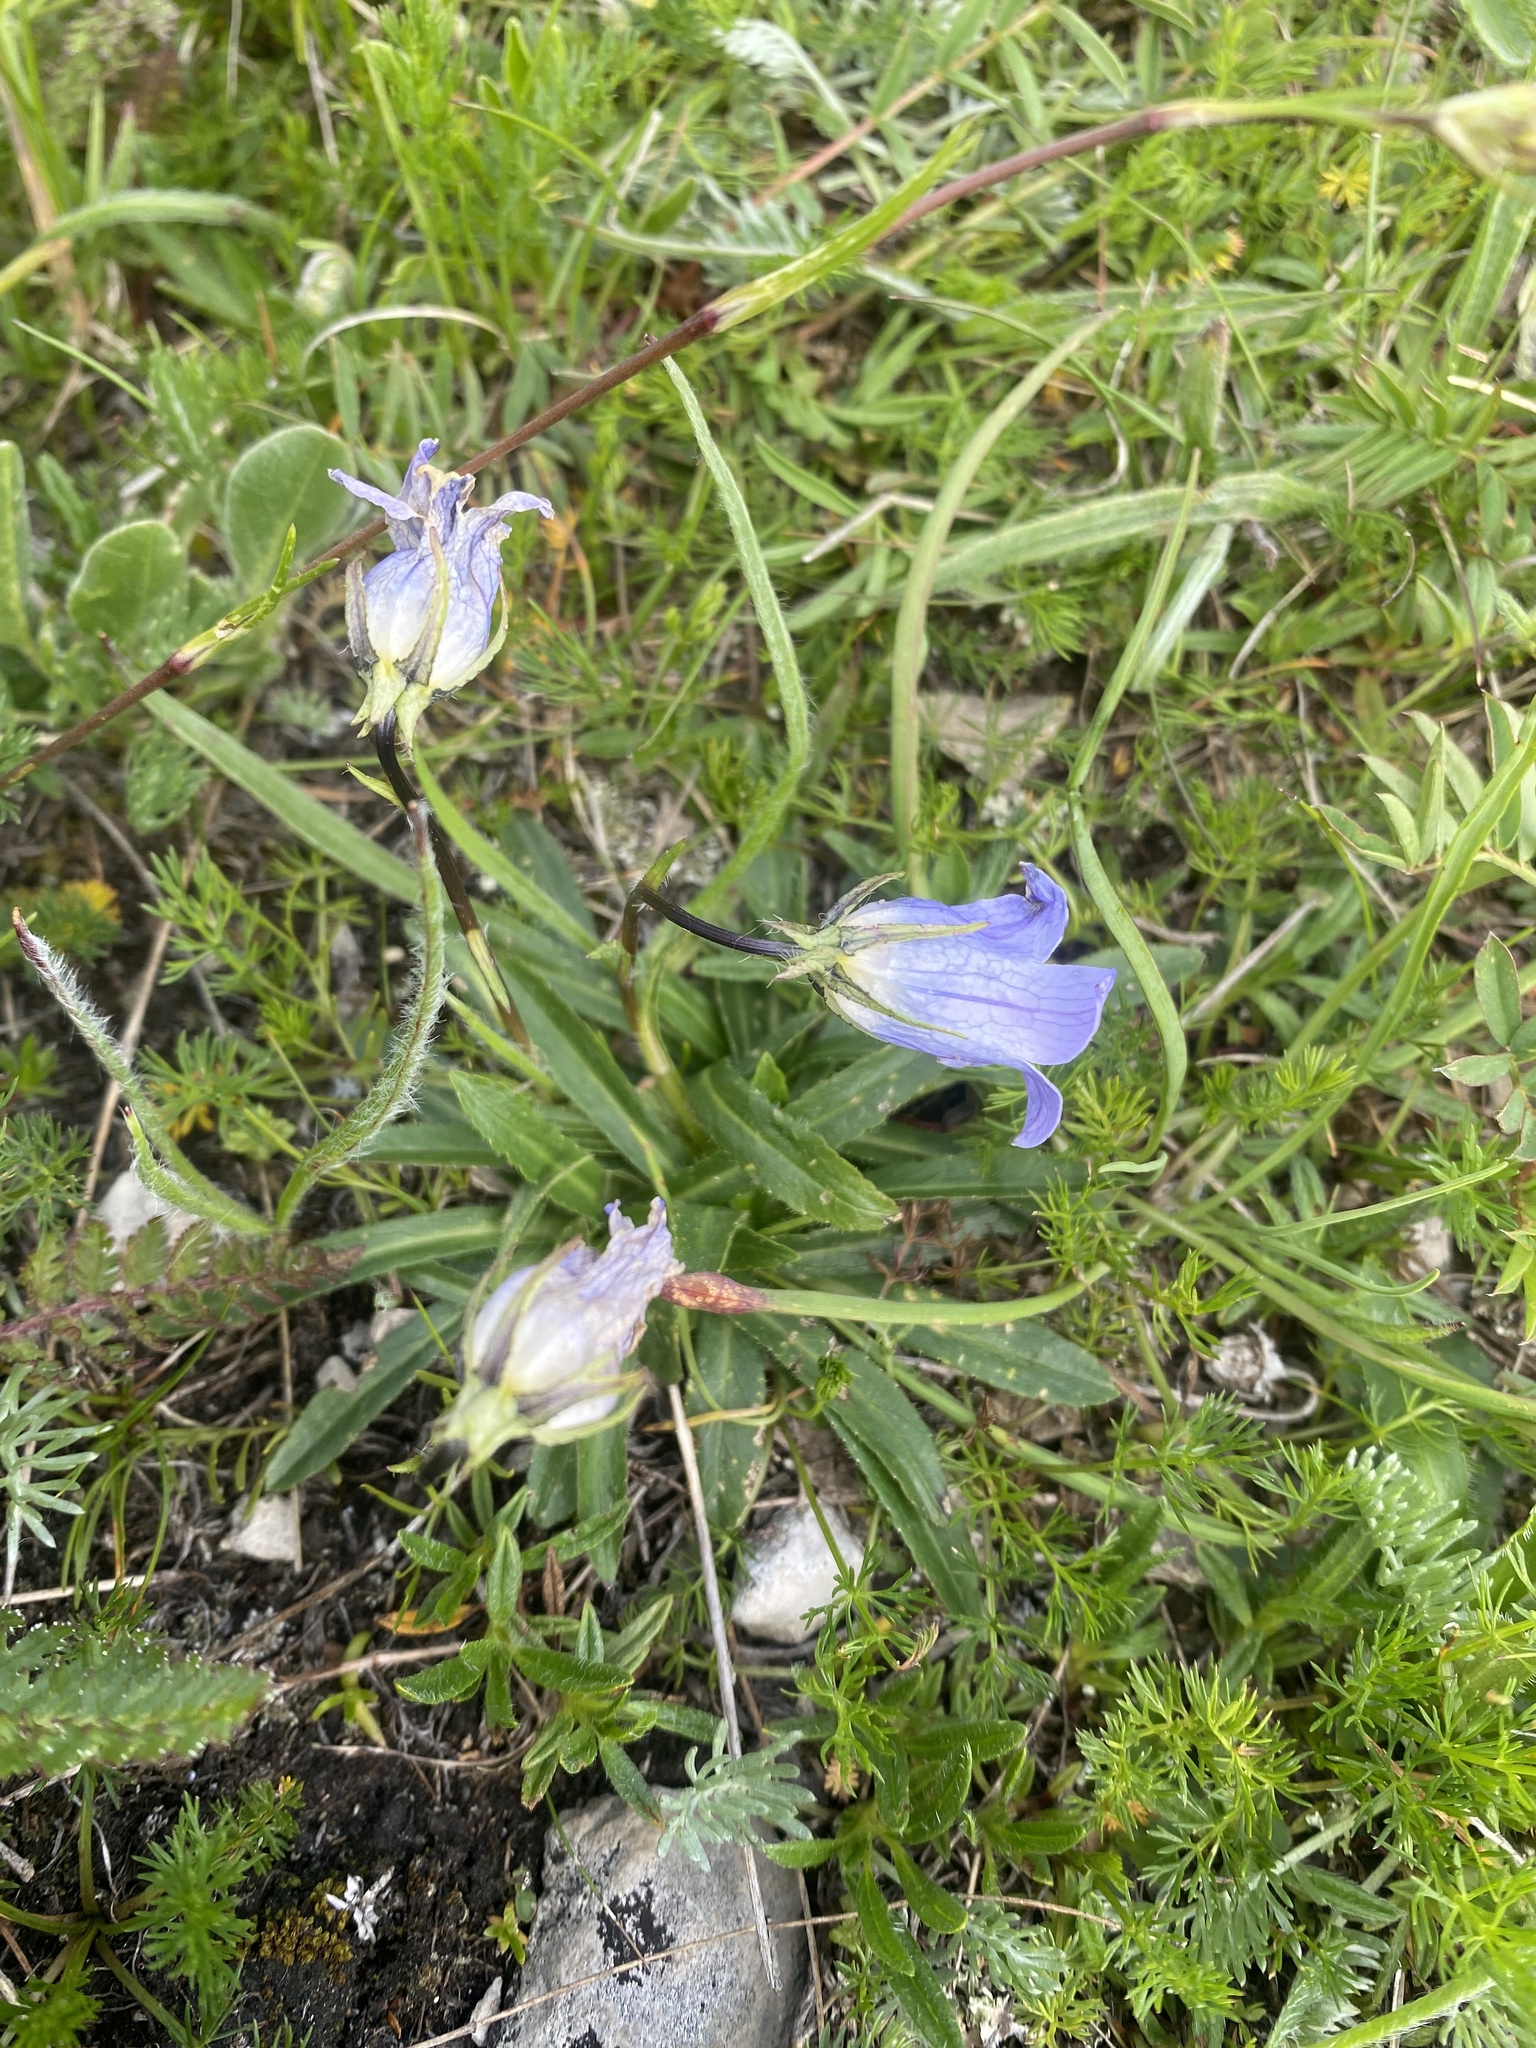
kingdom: Plantae
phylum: Tracheophyta
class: Magnoliopsida
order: Asterales
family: Campanulaceae
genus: Campanula
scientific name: Campanula ciliata
